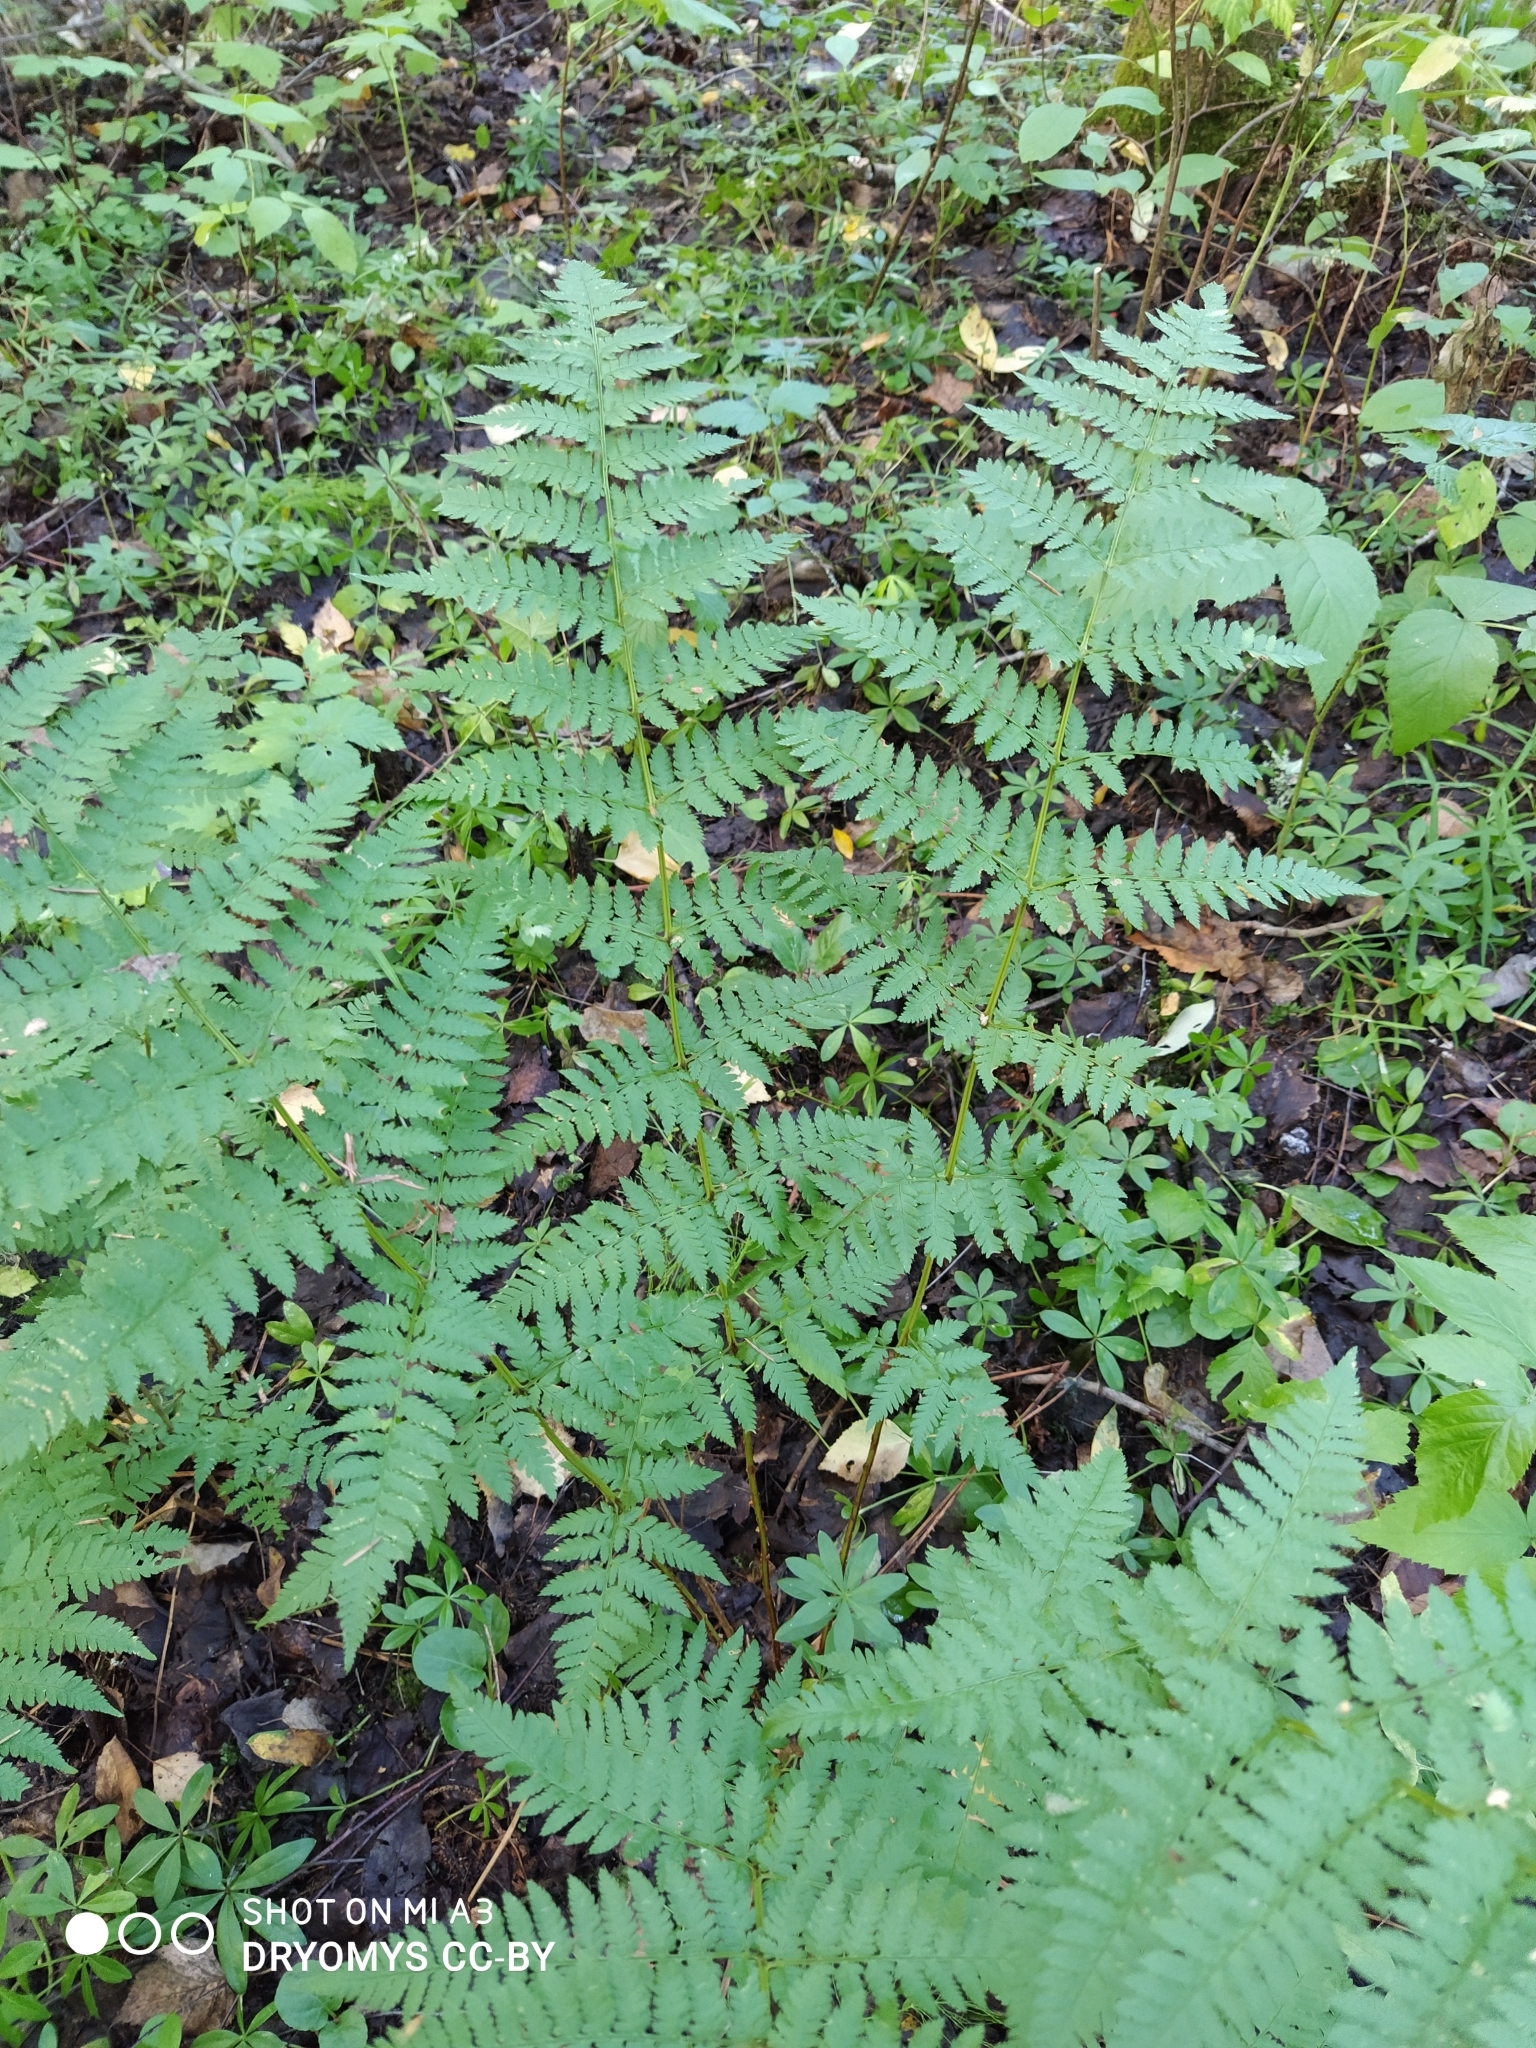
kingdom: Plantae
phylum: Tracheophyta
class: Polypodiopsida
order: Polypodiales
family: Dryopteridaceae
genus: Dryopteris
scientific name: Dryopteris carthusiana
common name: Narrow buckler-fern
